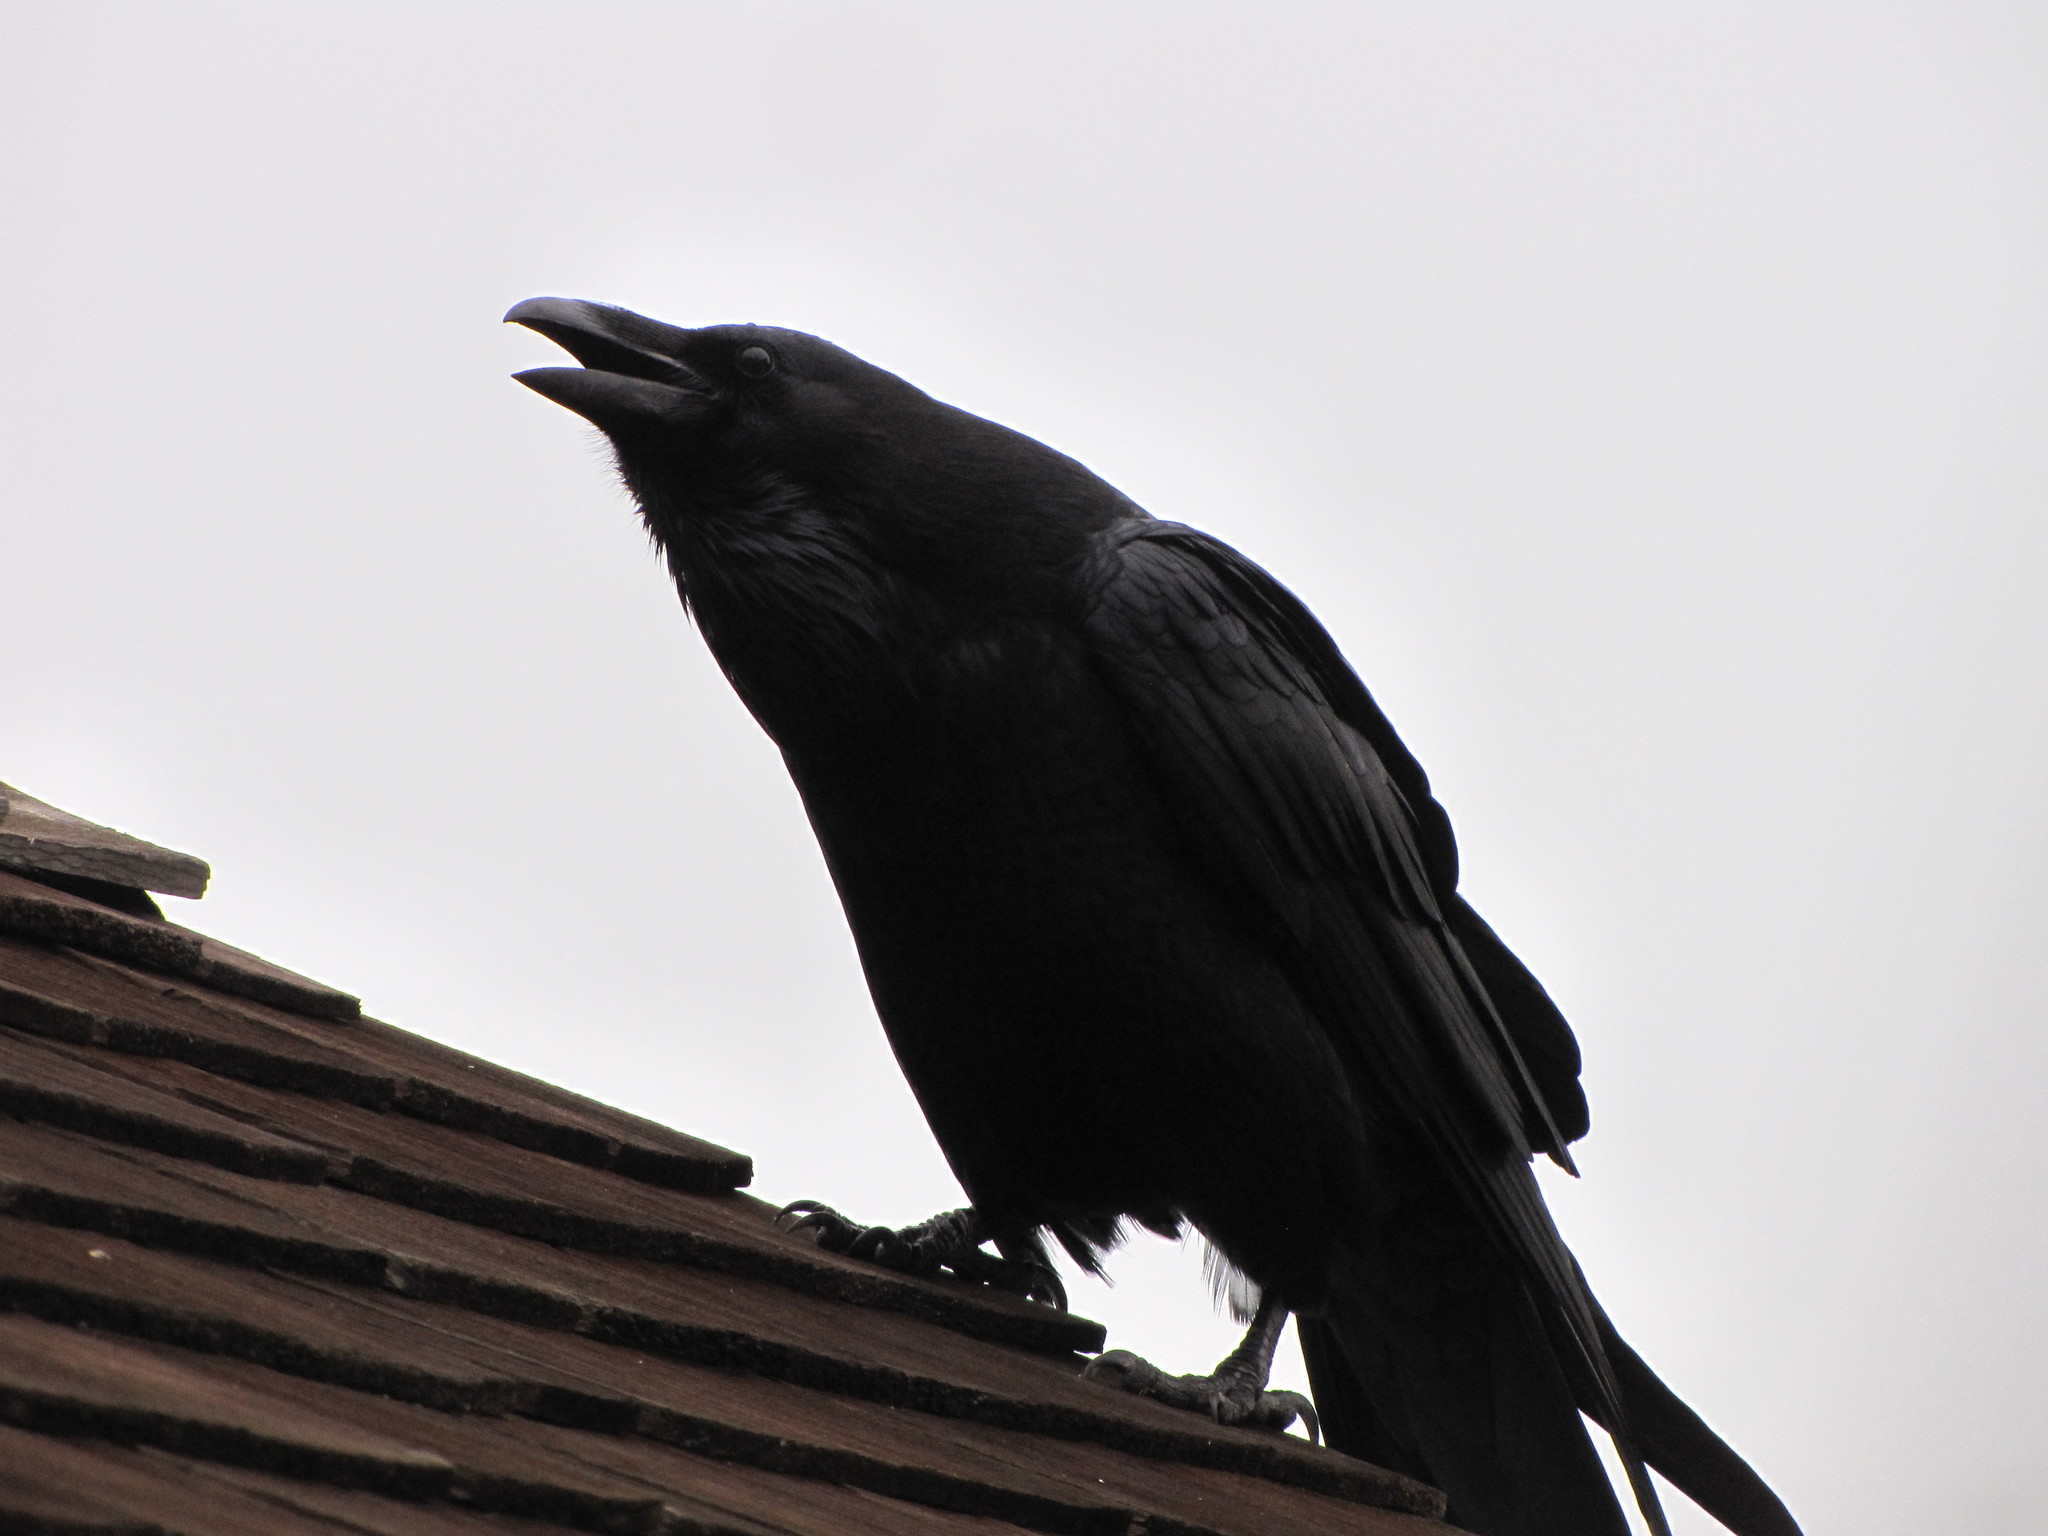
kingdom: Animalia
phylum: Chordata
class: Aves
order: Passeriformes
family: Corvidae
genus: Corvus
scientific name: Corvus corax
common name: Common raven
